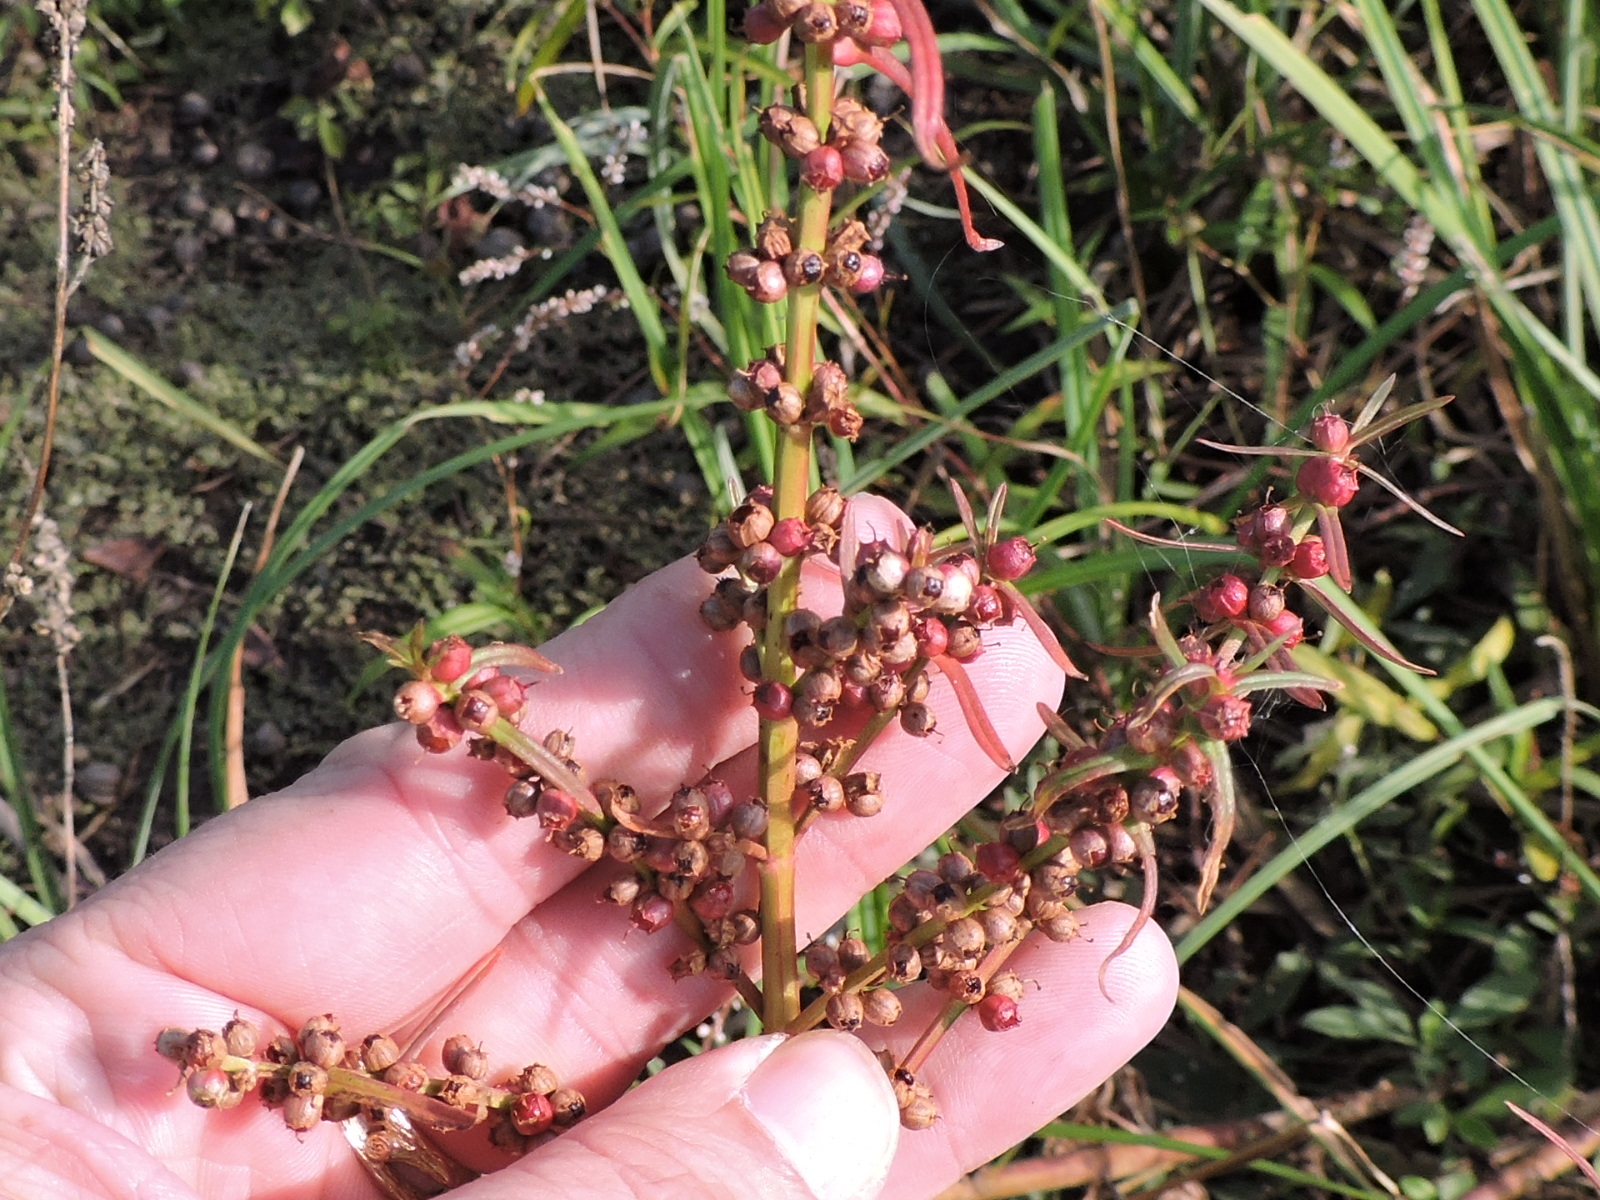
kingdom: Plantae
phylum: Tracheophyta
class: Magnoliopsida
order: Myrtales
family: Lythraceae
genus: Ammannia
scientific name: Ammannia coccinea
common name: Valley redstem
